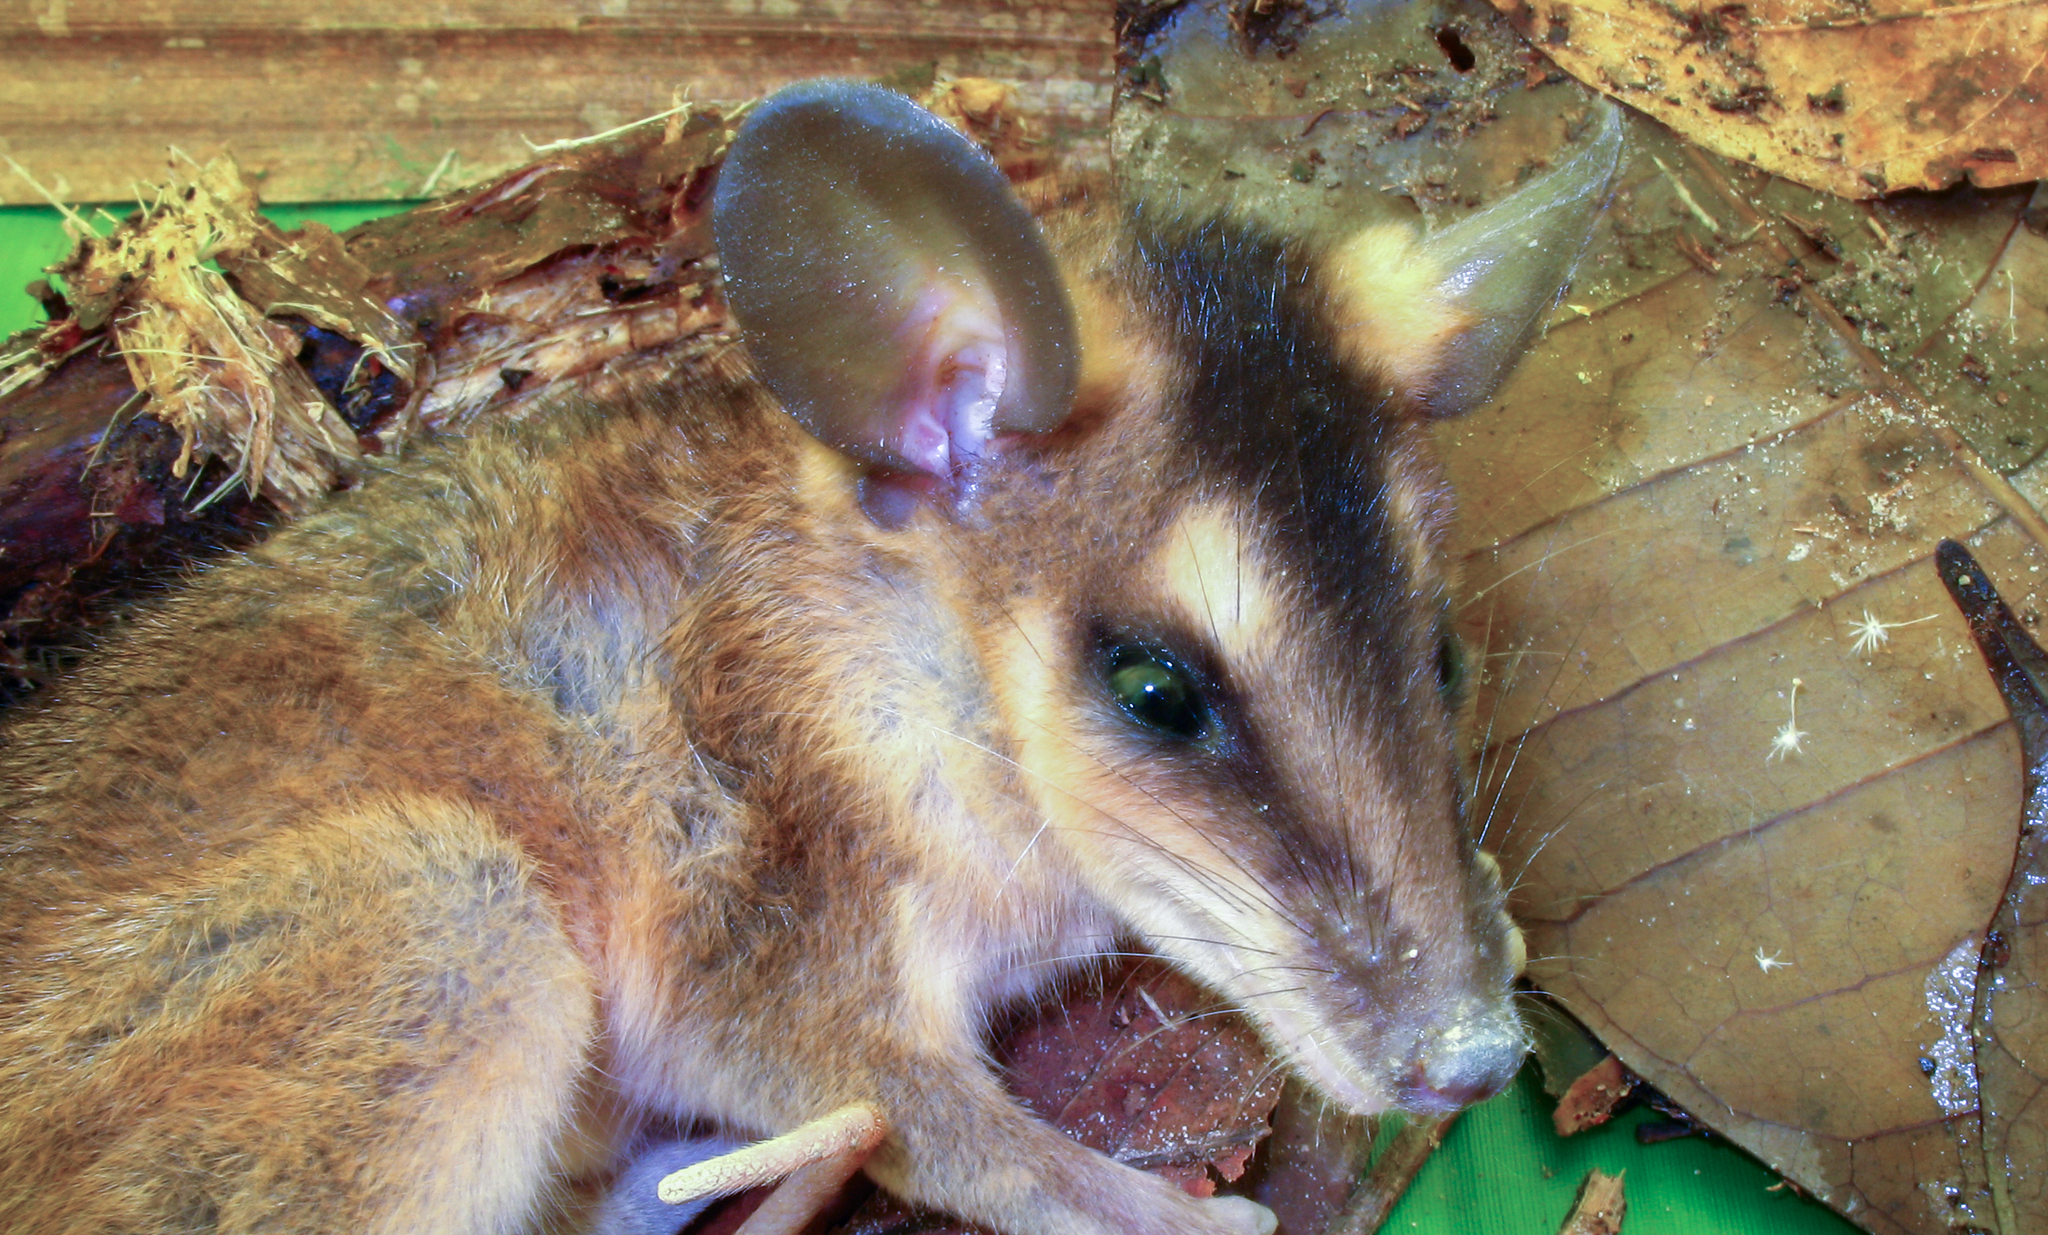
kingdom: Animalia
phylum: Chordata
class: Mammalia
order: Didelphimorphia
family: Didelphidae
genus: Metachirus
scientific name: Metachirus nudicaudatus
